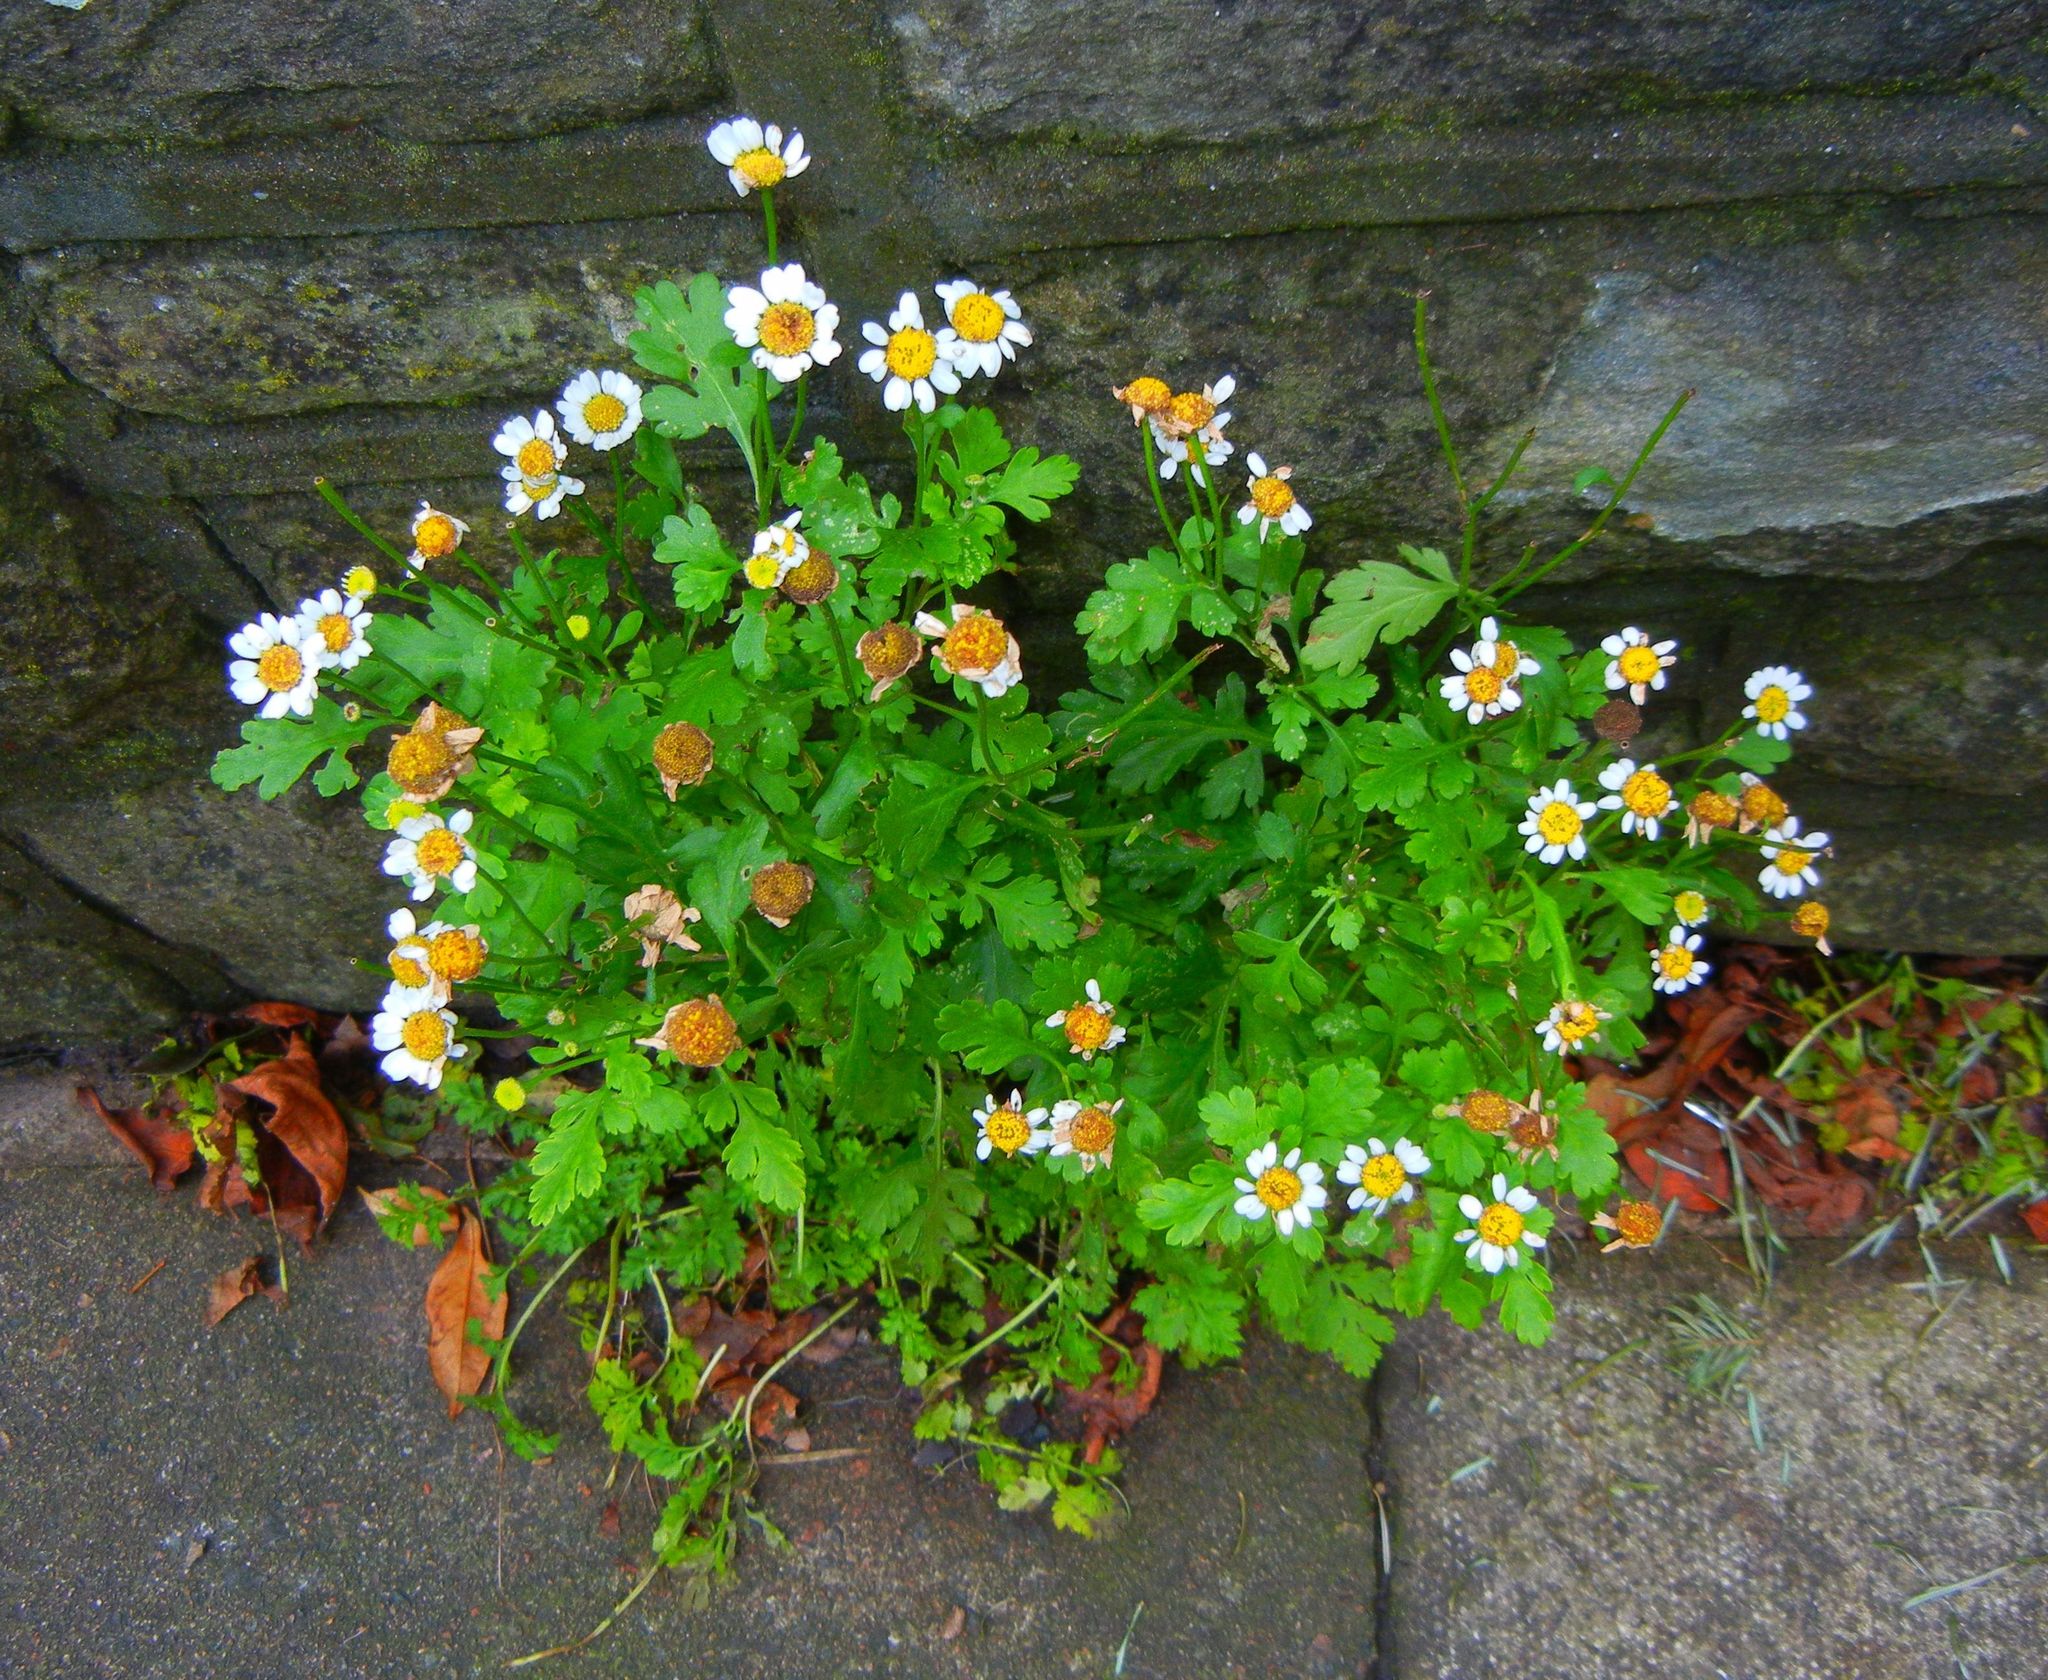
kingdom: Plantae
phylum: Tracheophyta
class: Magnoliopsida
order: Asterales
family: Asteraceae
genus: Tanacetum
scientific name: Tanacetum parthenium
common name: Feverfew
